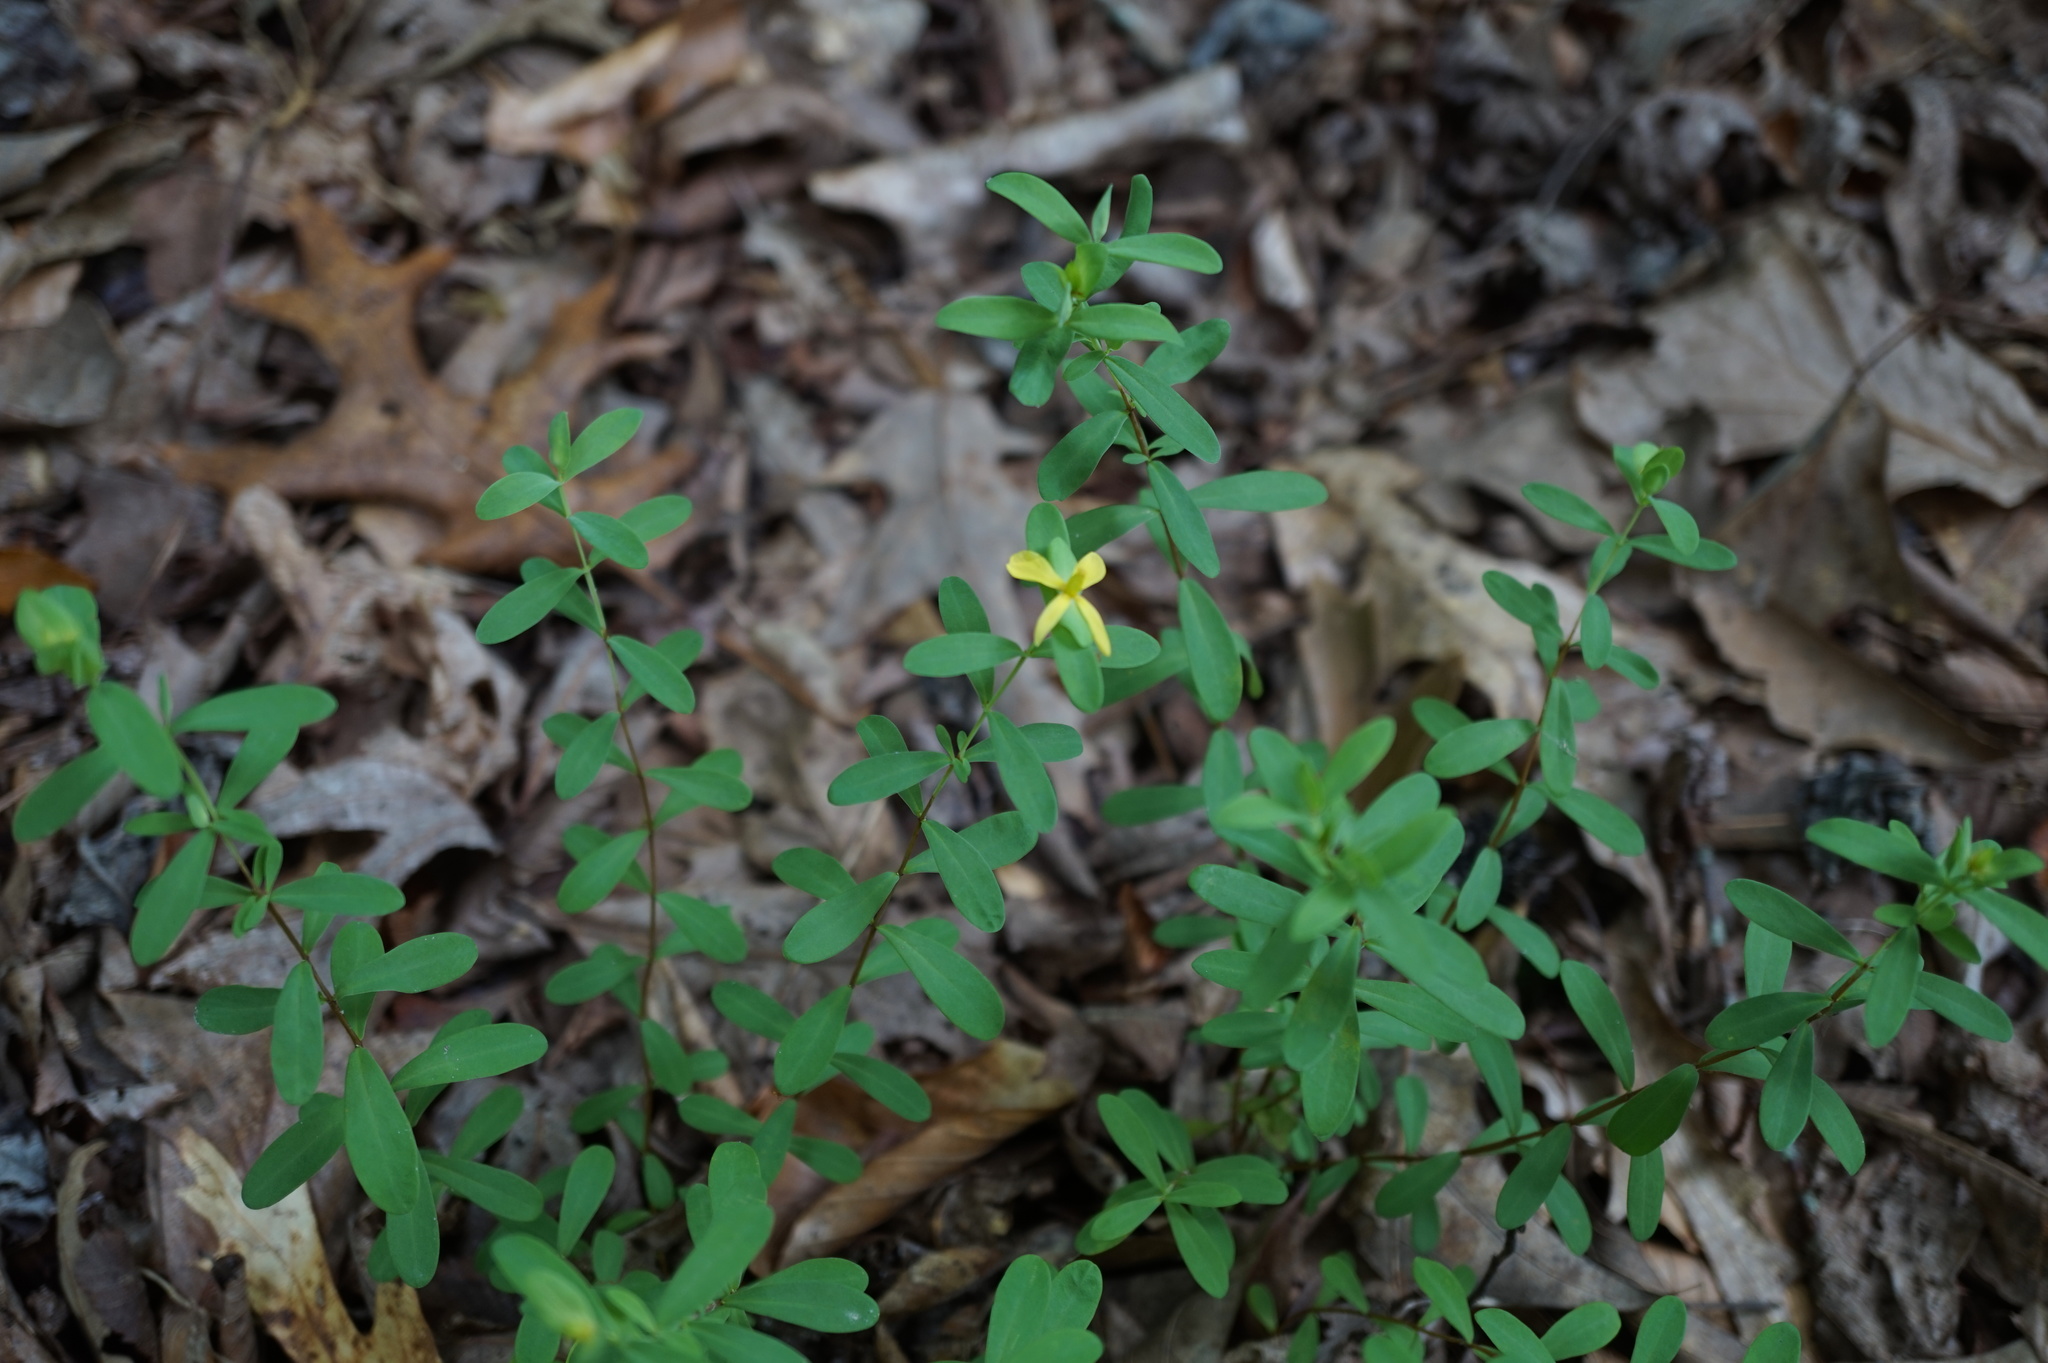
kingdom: Plantae
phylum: Tracheophyta
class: Magnoliopsida
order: Malpighiales
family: Hypericaceae
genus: Hypericum
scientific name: Hypericum hypericoides
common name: St. andrew's cross
